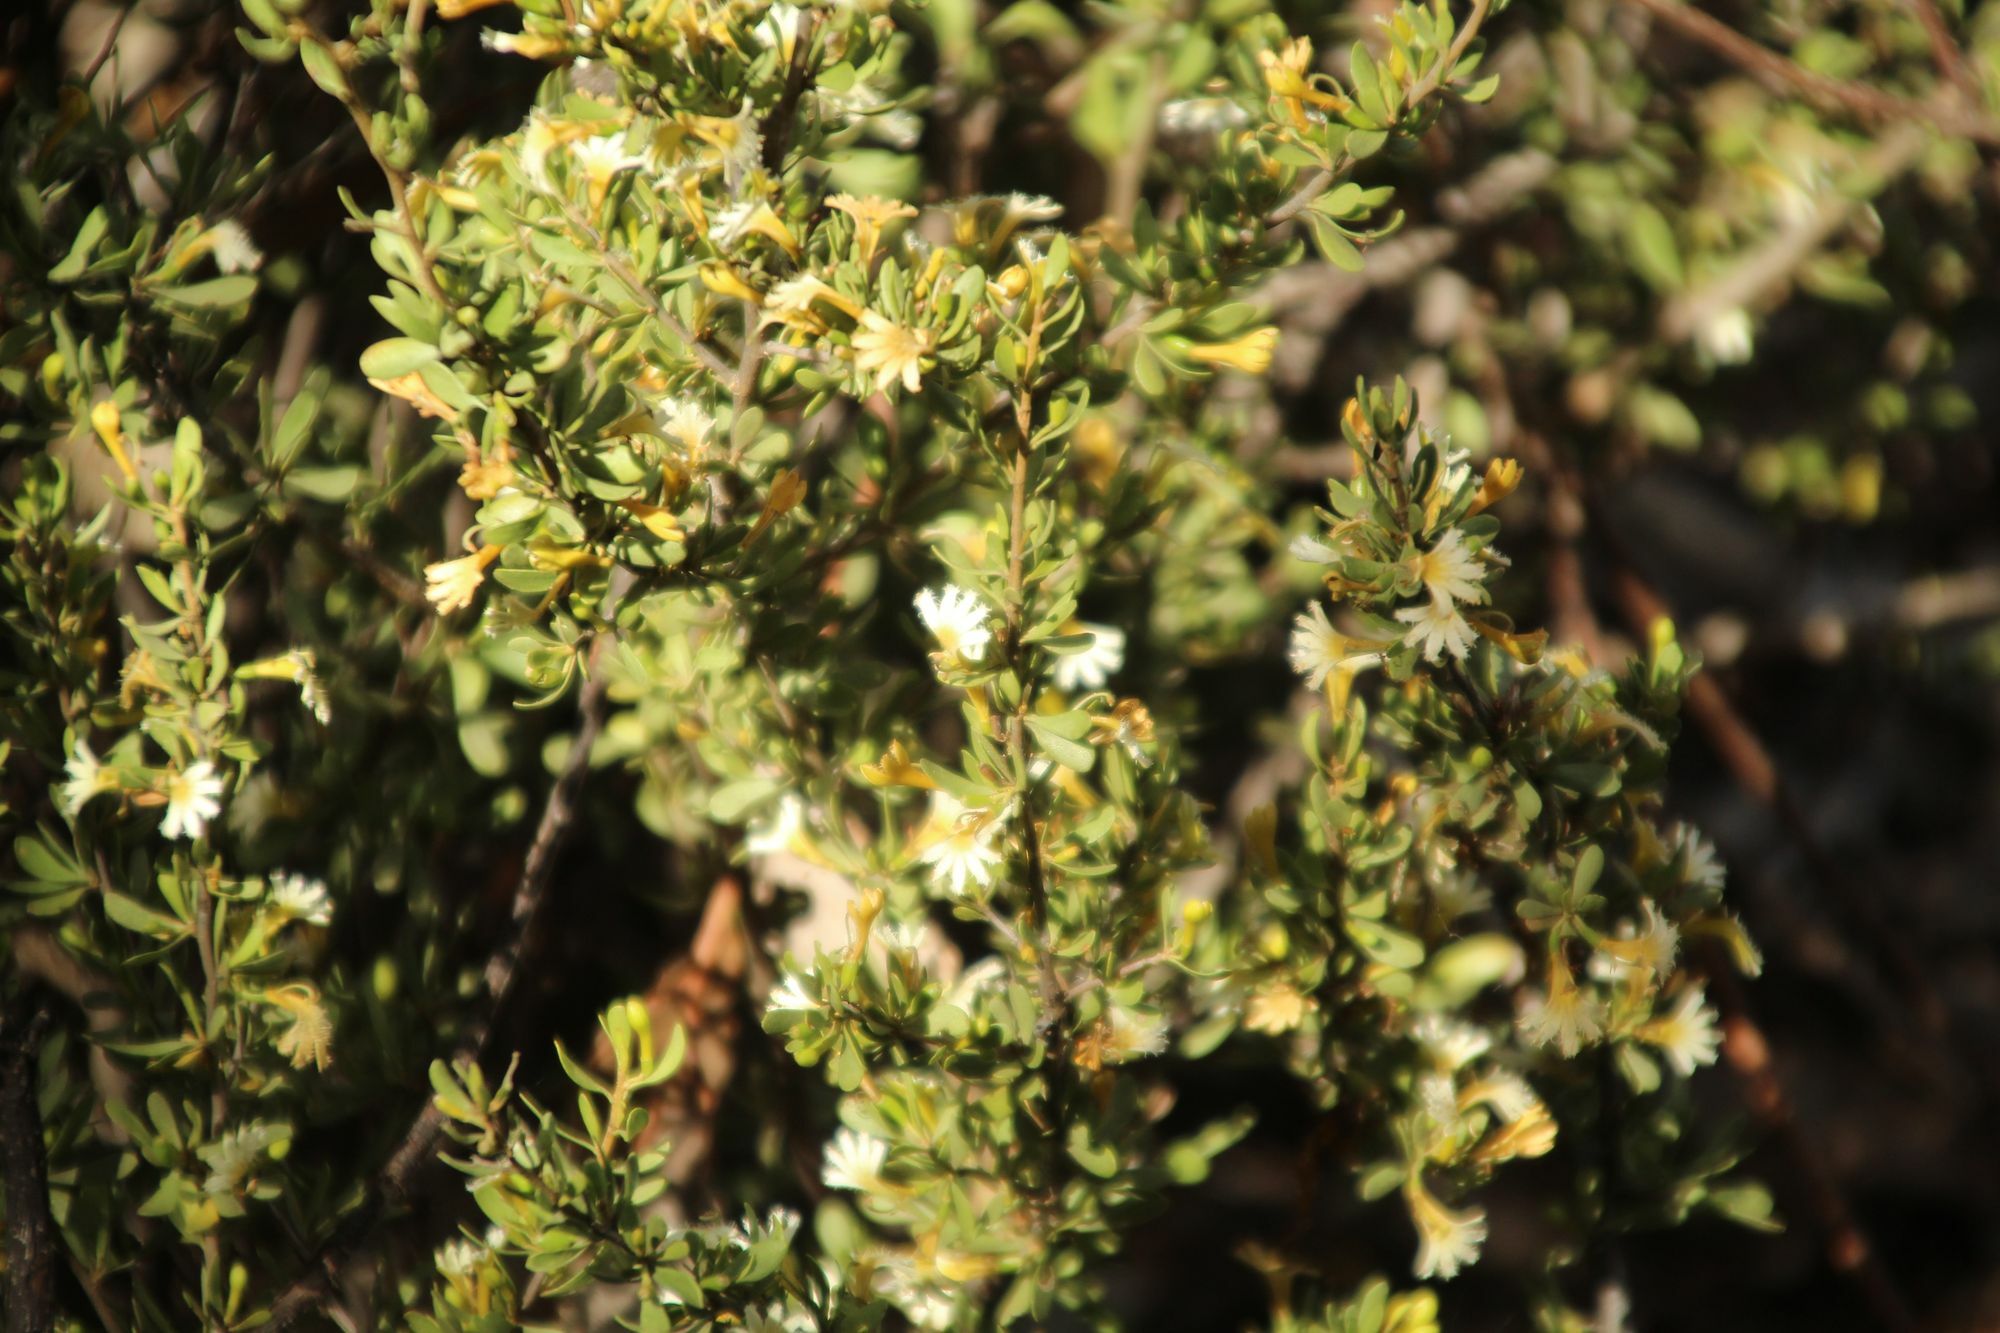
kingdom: Plantae
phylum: Tracheophyta
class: Magnoliopsida
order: Asterales
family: Goodeniaceae
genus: Scaevola
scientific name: Scaevola spinescens
